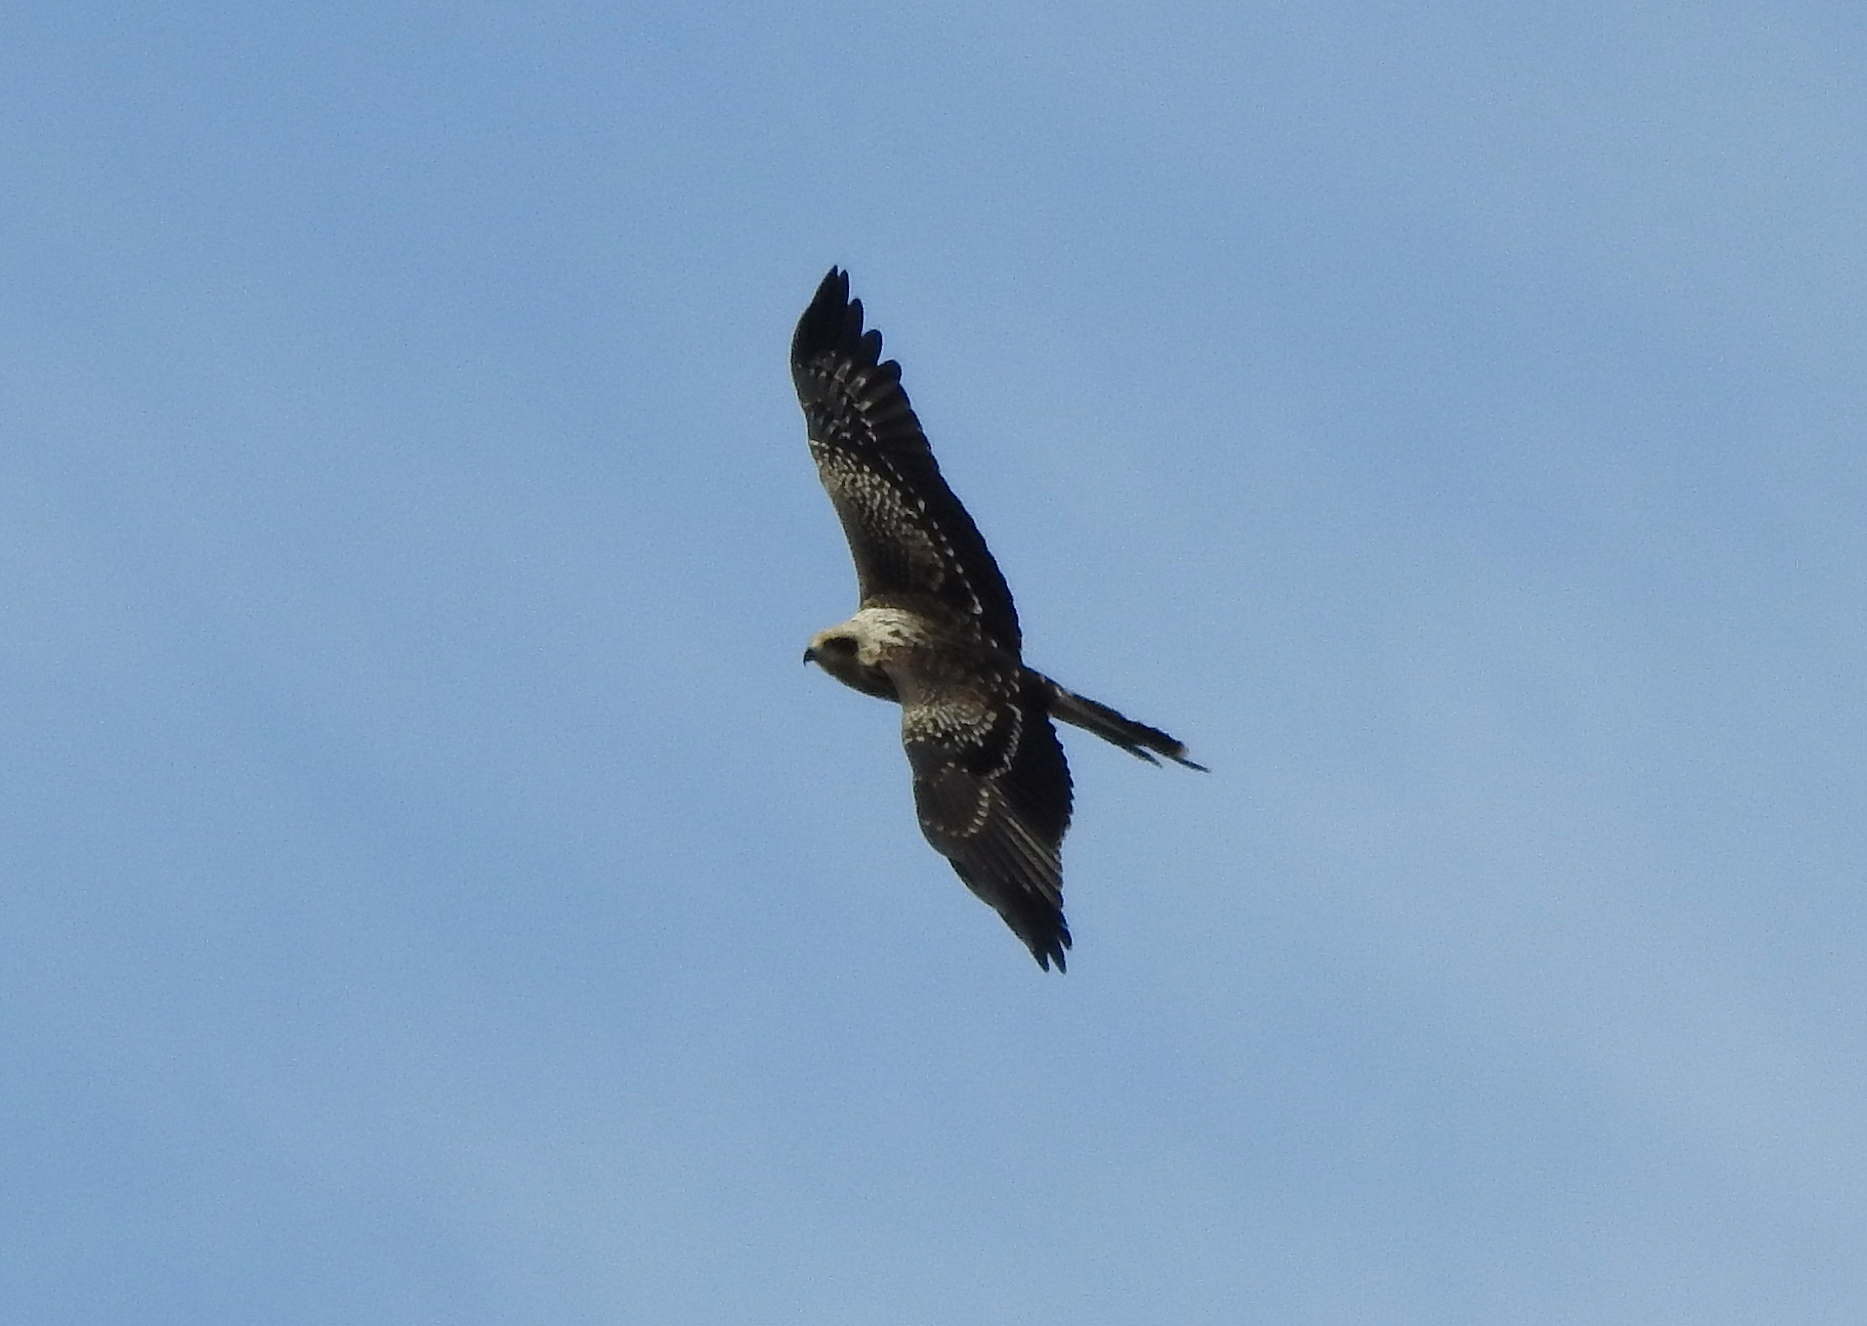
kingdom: Animalia
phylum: Chordata
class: Aves
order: Accipitriformes
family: Accipitridae
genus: Milvus
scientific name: Milvus migrans
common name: Black kite
